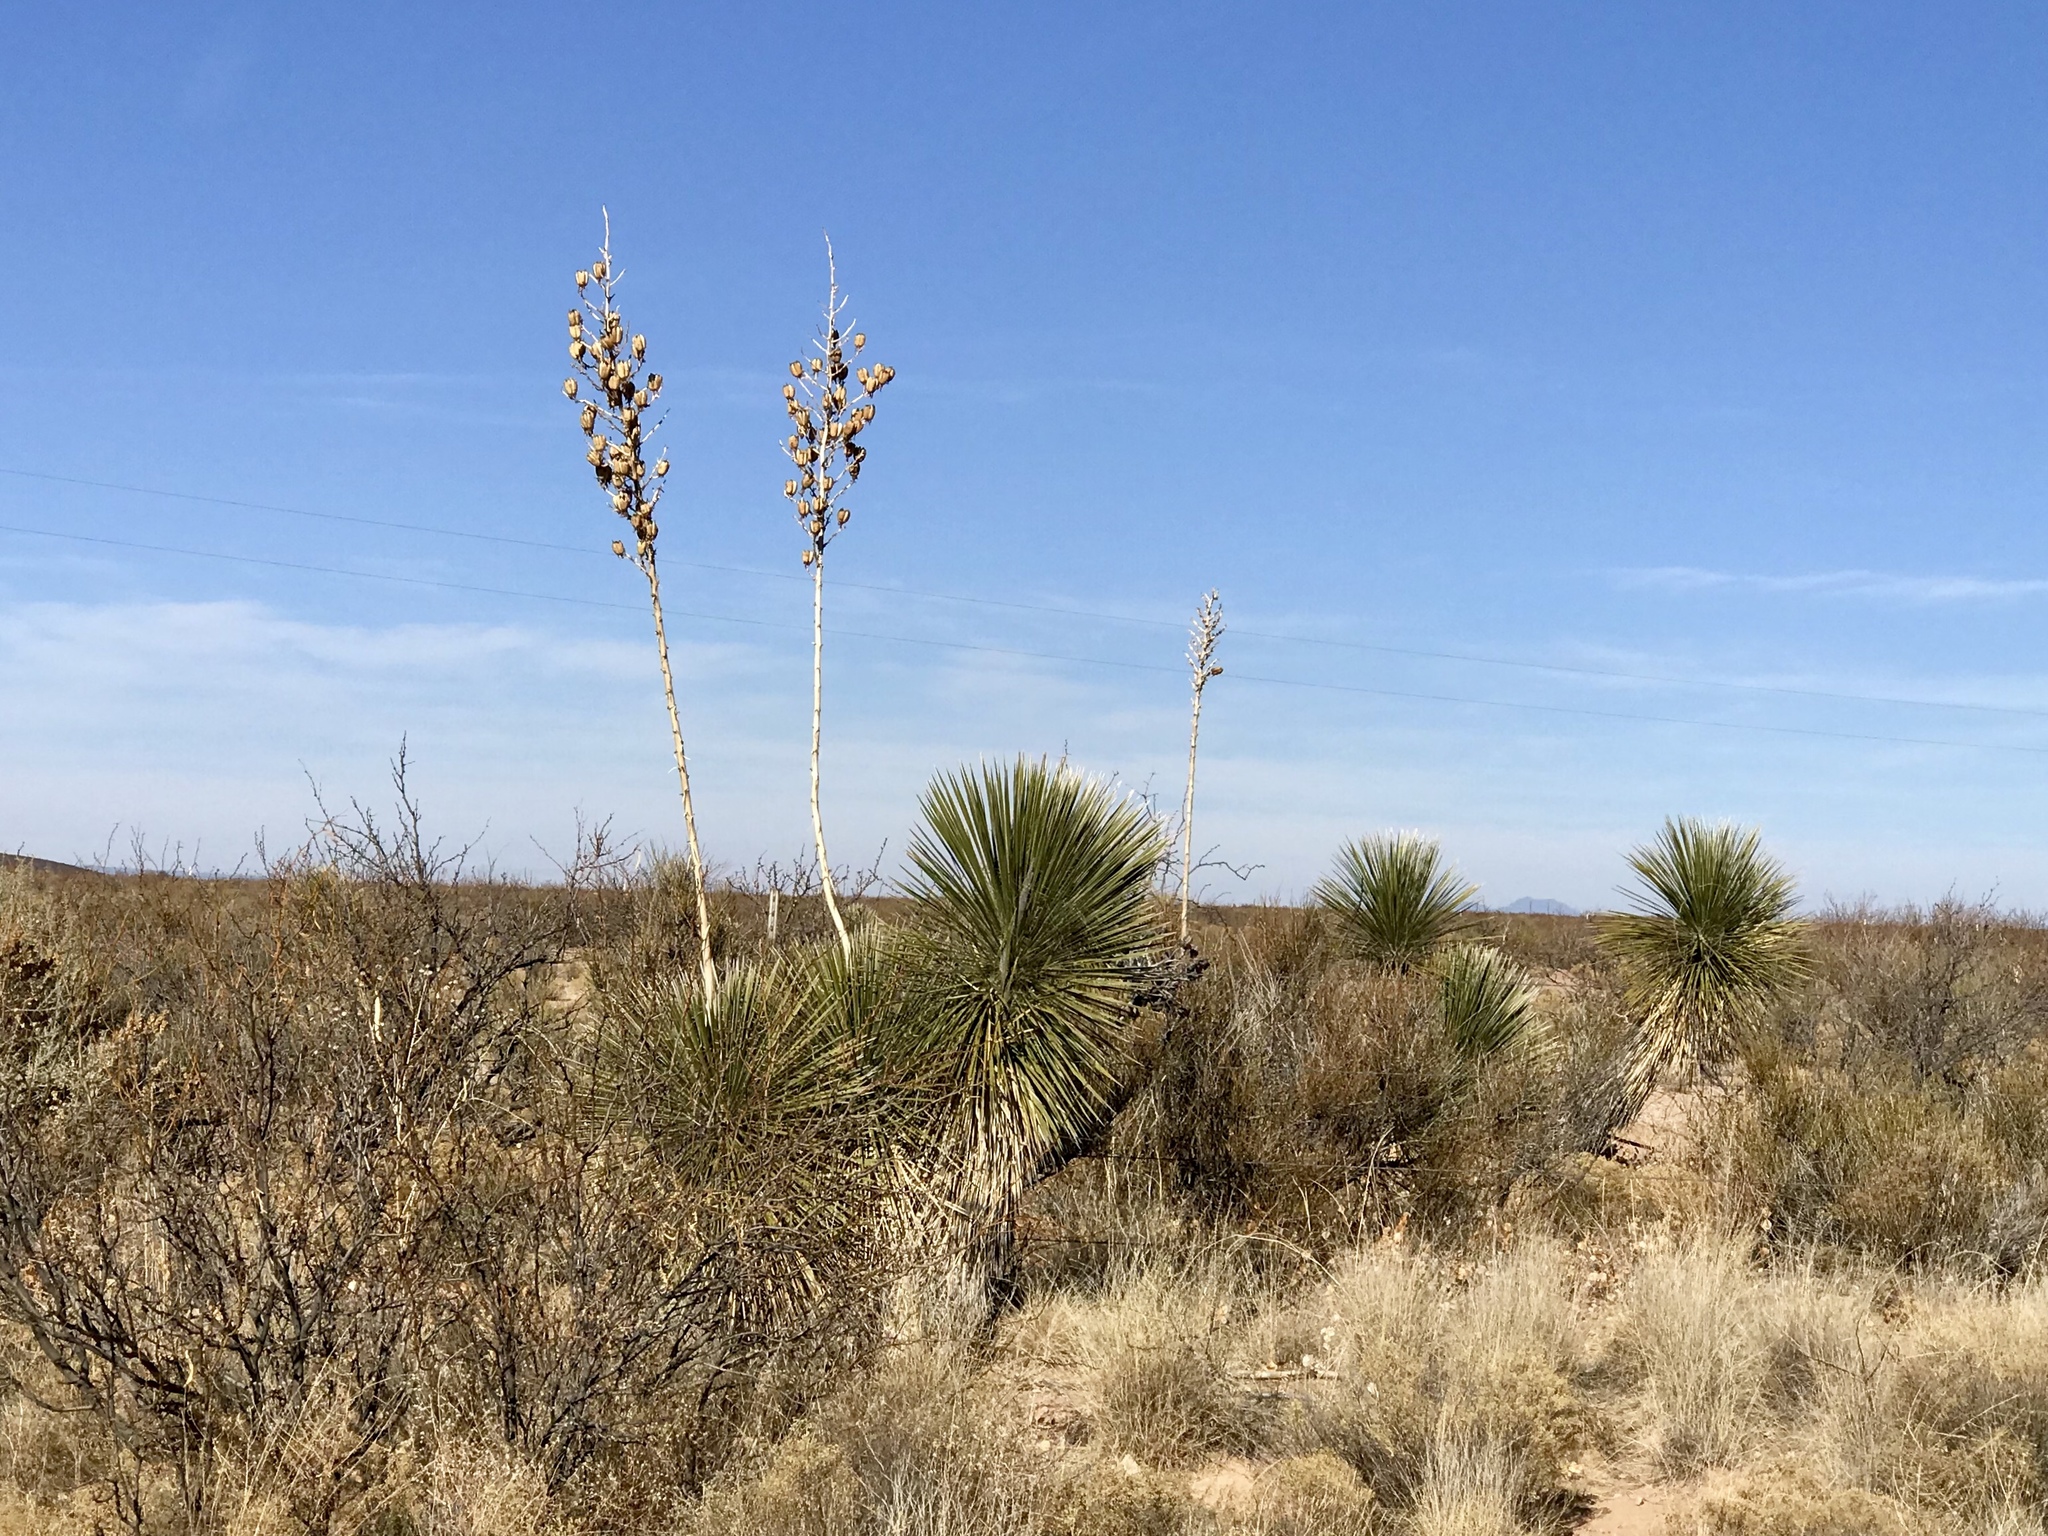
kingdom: Plantae
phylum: Tracheophyta
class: Liliopsida
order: Asparagales
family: Asparagaceae
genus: Yucca
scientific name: Yucca elata
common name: Palmella
